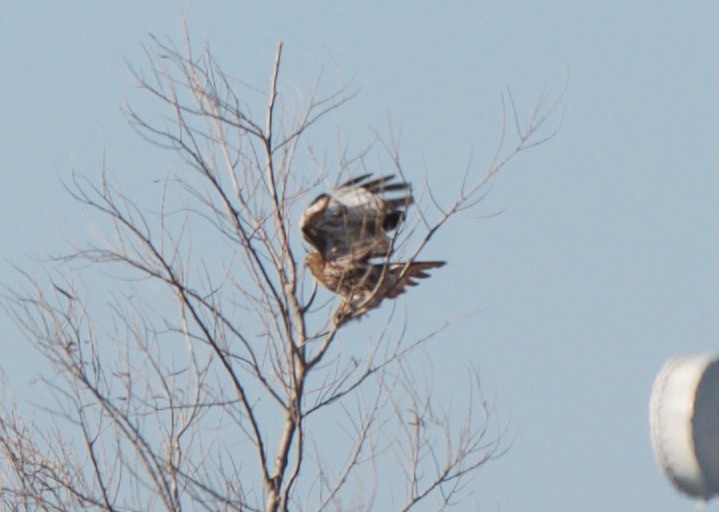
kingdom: Animalia
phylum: Chordata
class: Aves
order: Accipitriformes
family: Accipitridae
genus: Buteo
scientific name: Buteo jamaicensis
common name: Red-tailed hawk
